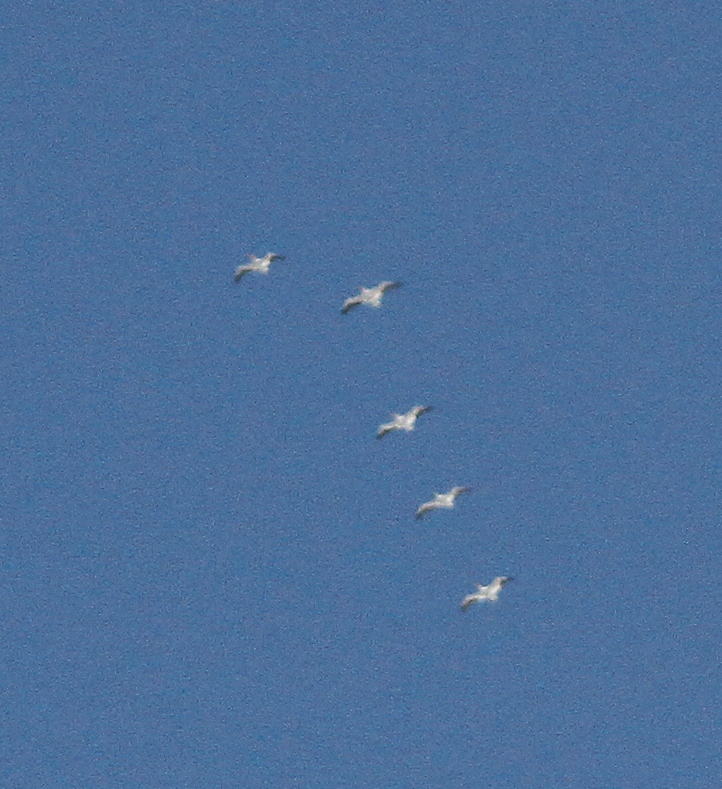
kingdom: Animalia
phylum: Chordata
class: Aves
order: Pelecaniformes
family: Pelecanidae
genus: Pelecanus
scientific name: Pelecanus erythrorhynchos
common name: American white pelican
